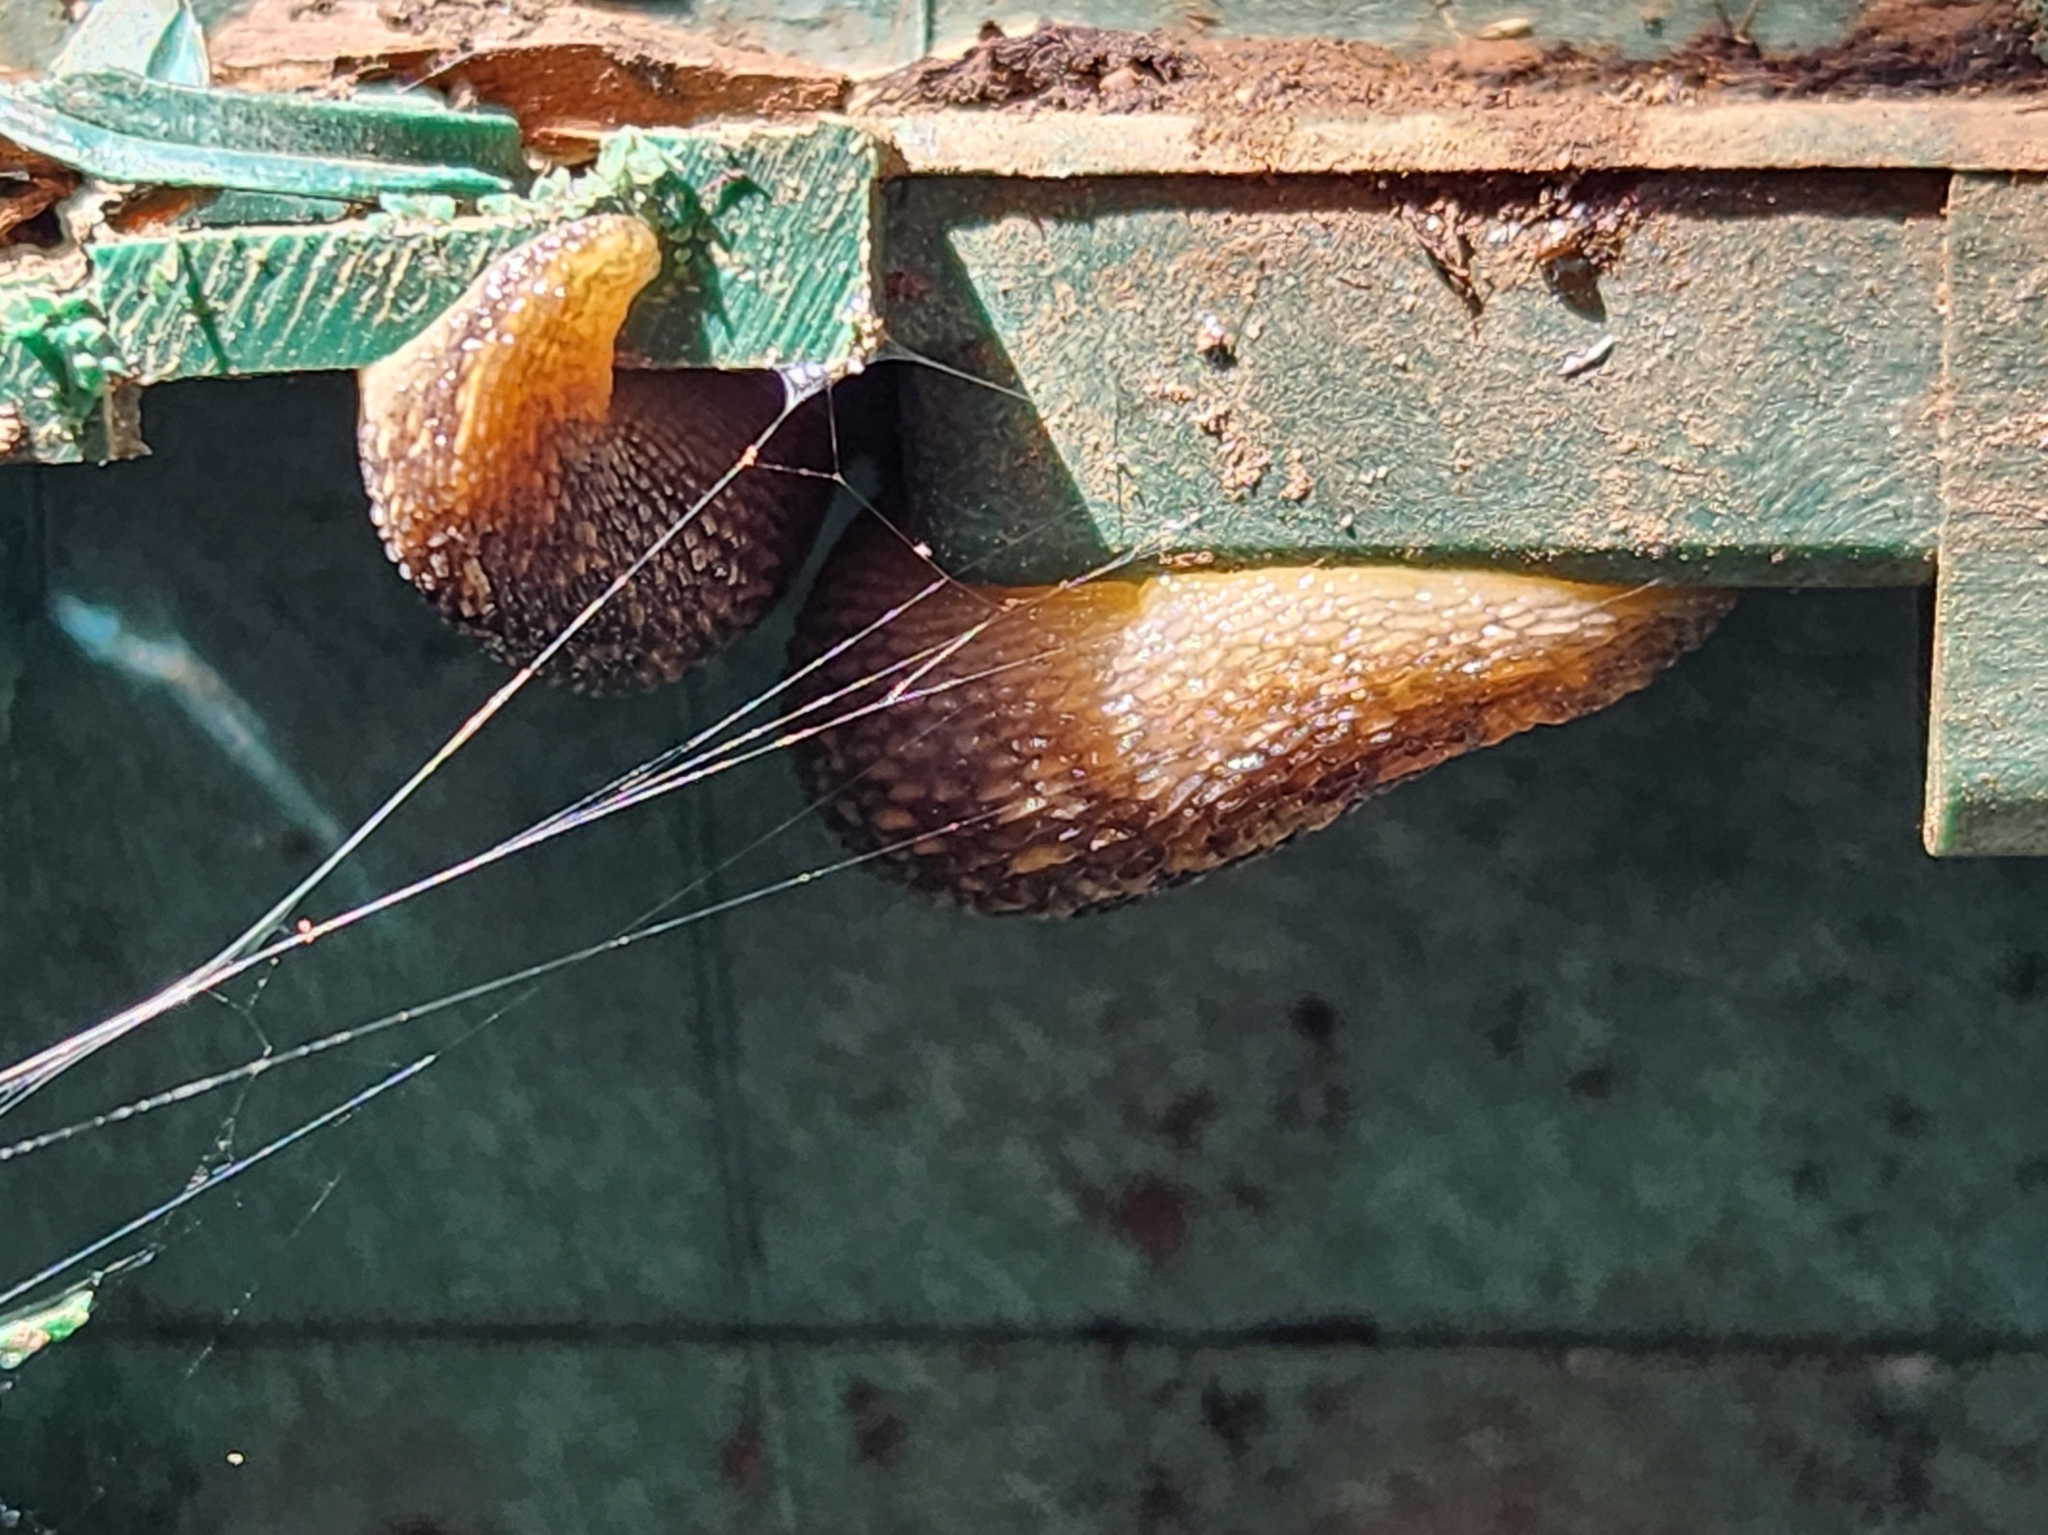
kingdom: Animalia
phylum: Mollusca
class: Gastropoda
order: Stylommatophora
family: Limacidae
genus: Limacus
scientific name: Limacus flavus
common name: Yellow gardenslug
